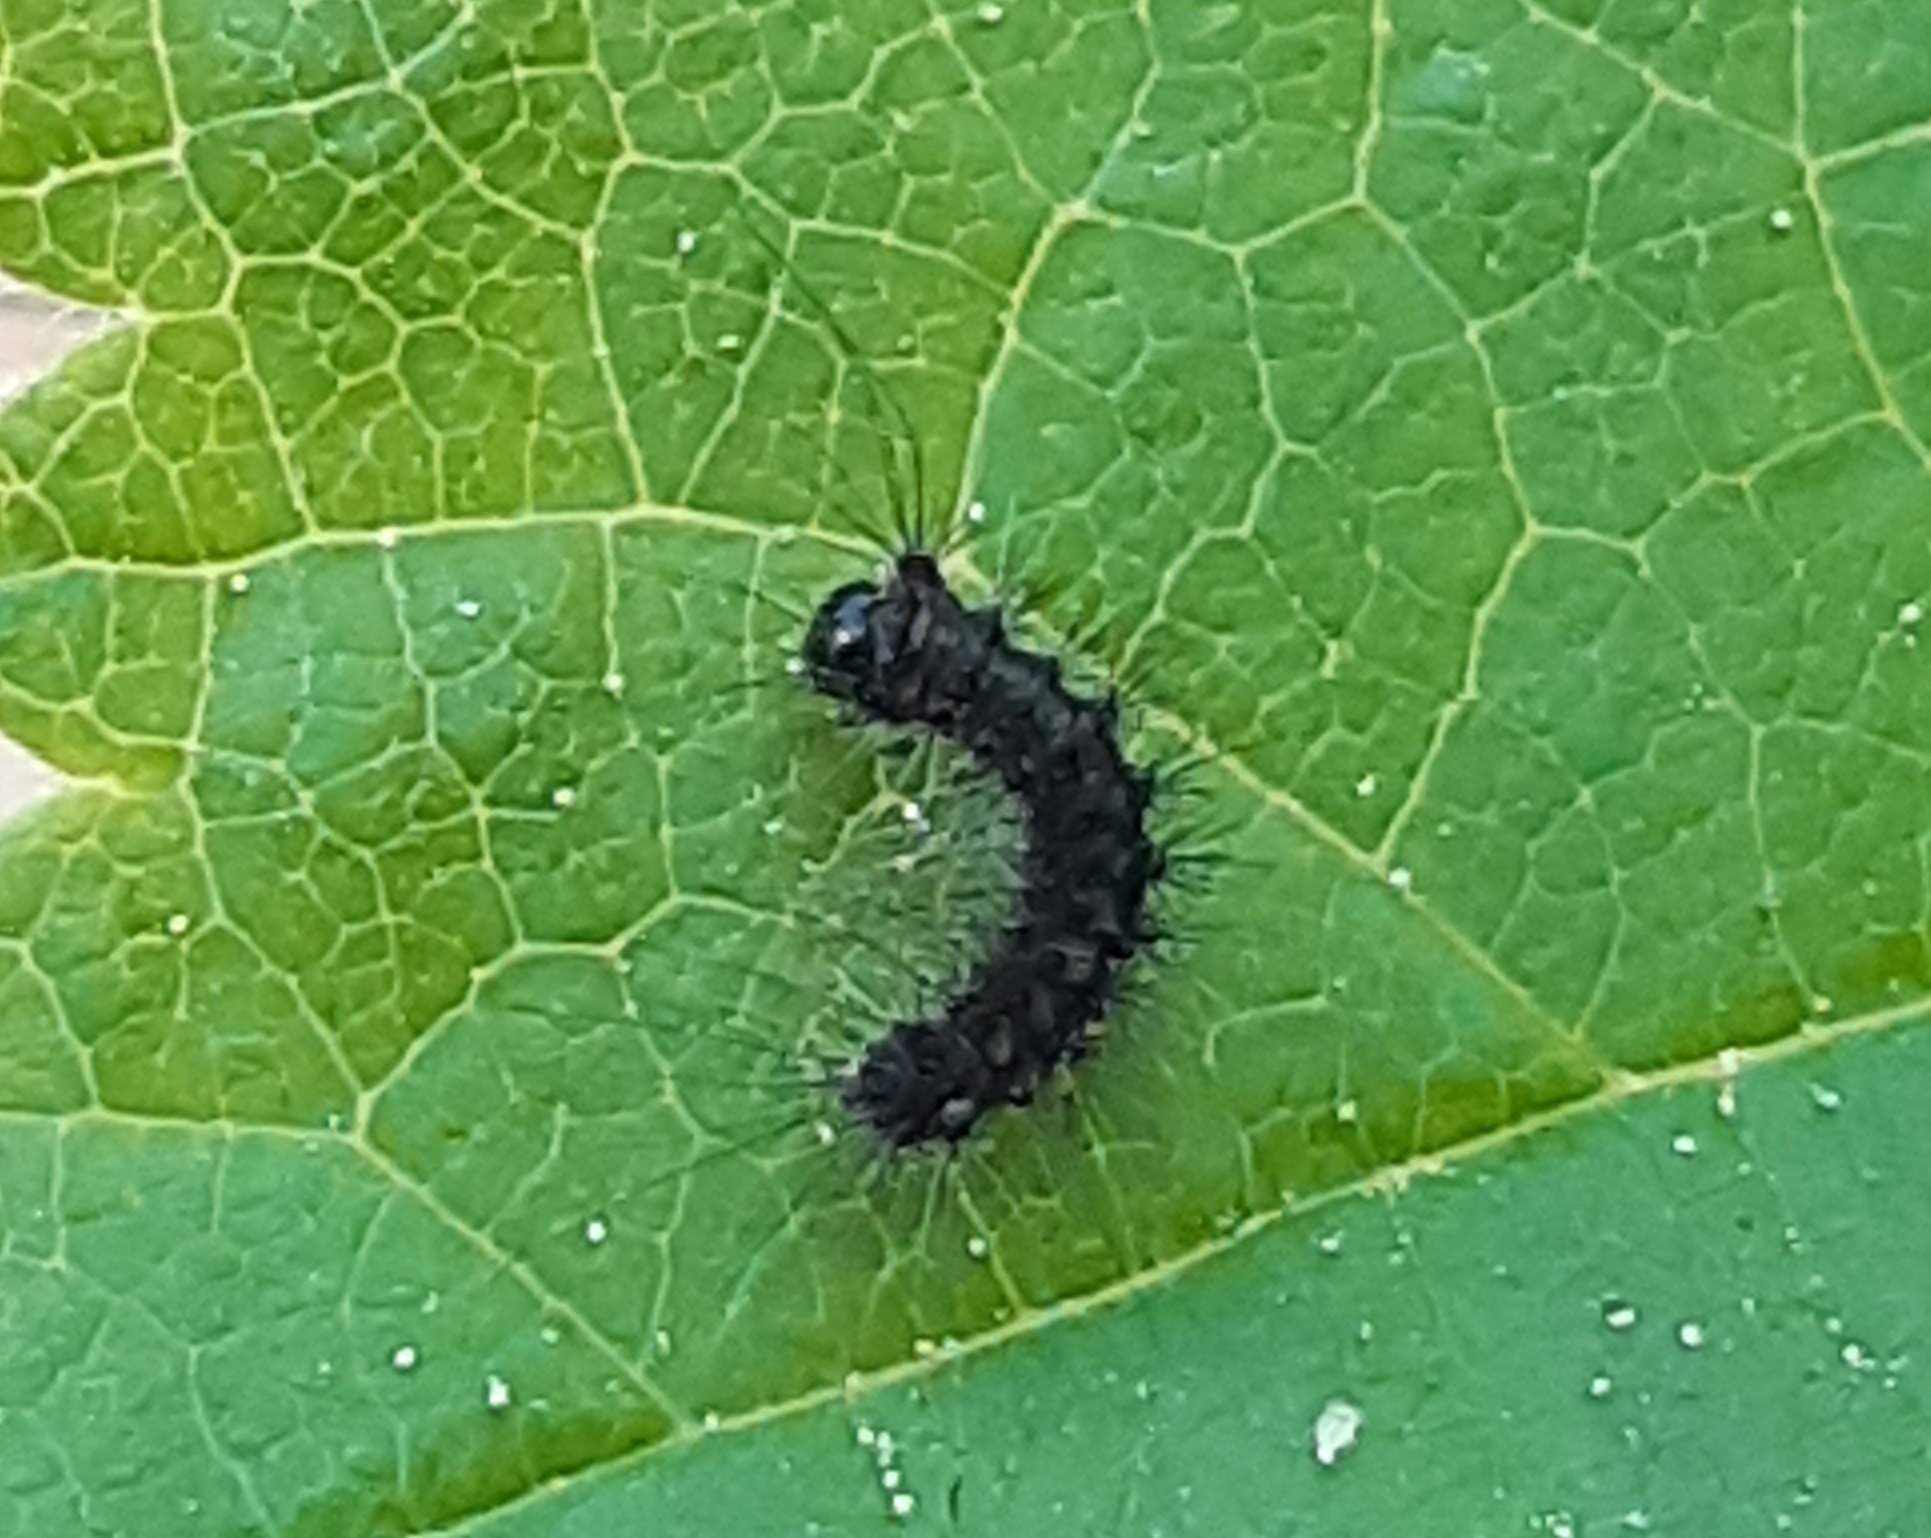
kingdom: Animalia
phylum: Arthropoda
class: Insecta
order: Lepidoptera
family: Erebidae
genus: Lymantria
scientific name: Lymantria dispar
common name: Gypsy moth
